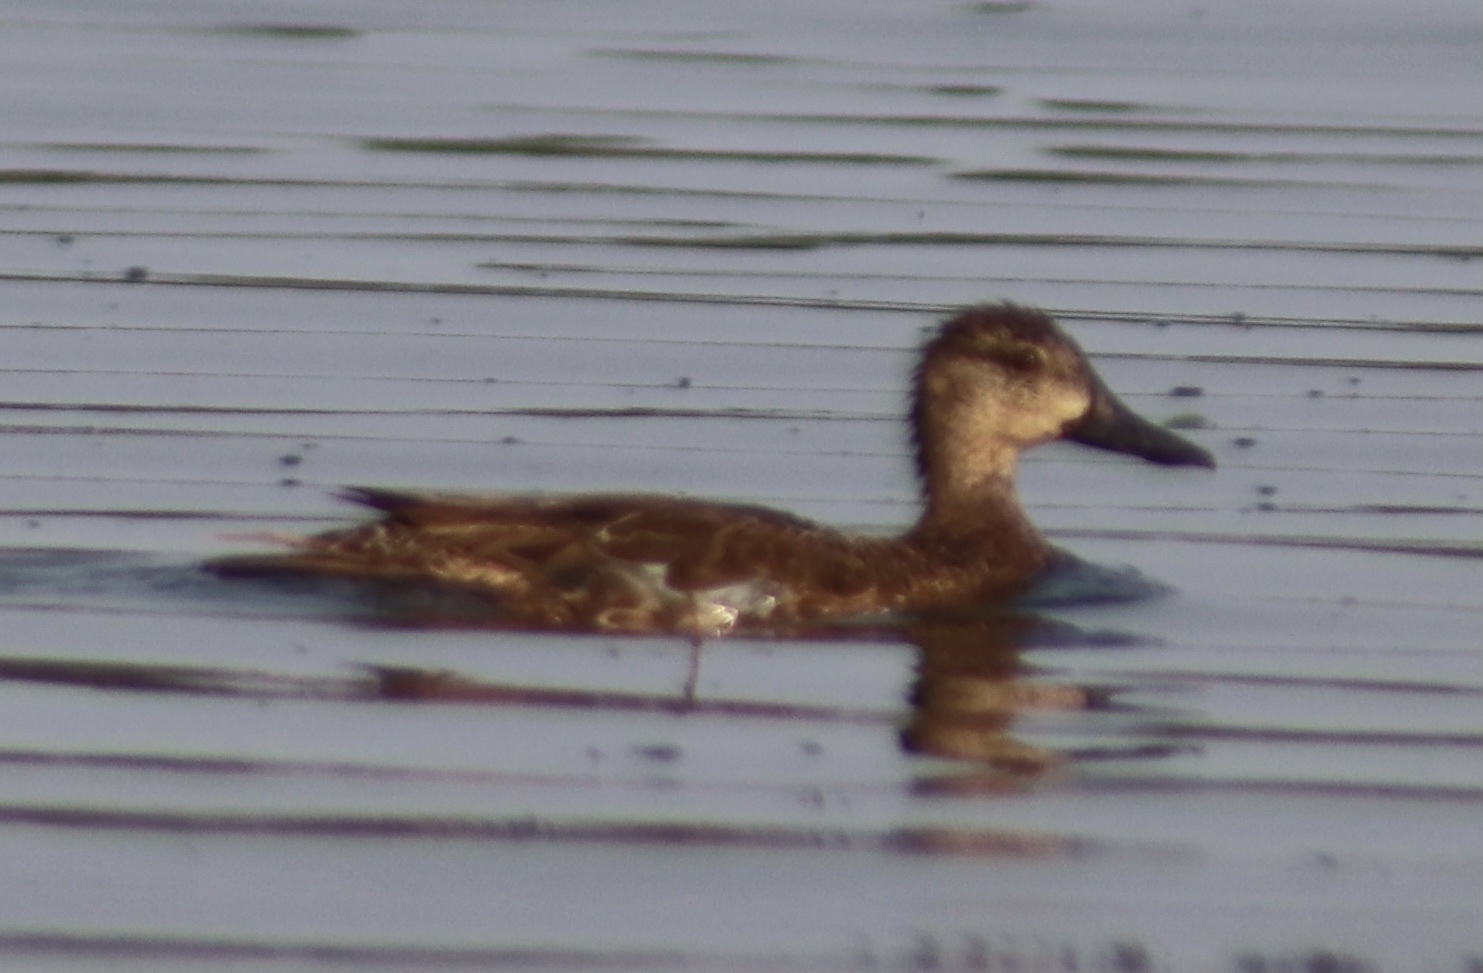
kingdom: Animalia
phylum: Chordata
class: Aves
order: Anseriformes
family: Anatidae
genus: Spatula
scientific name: Spatula discors
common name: Blue-winged teal
